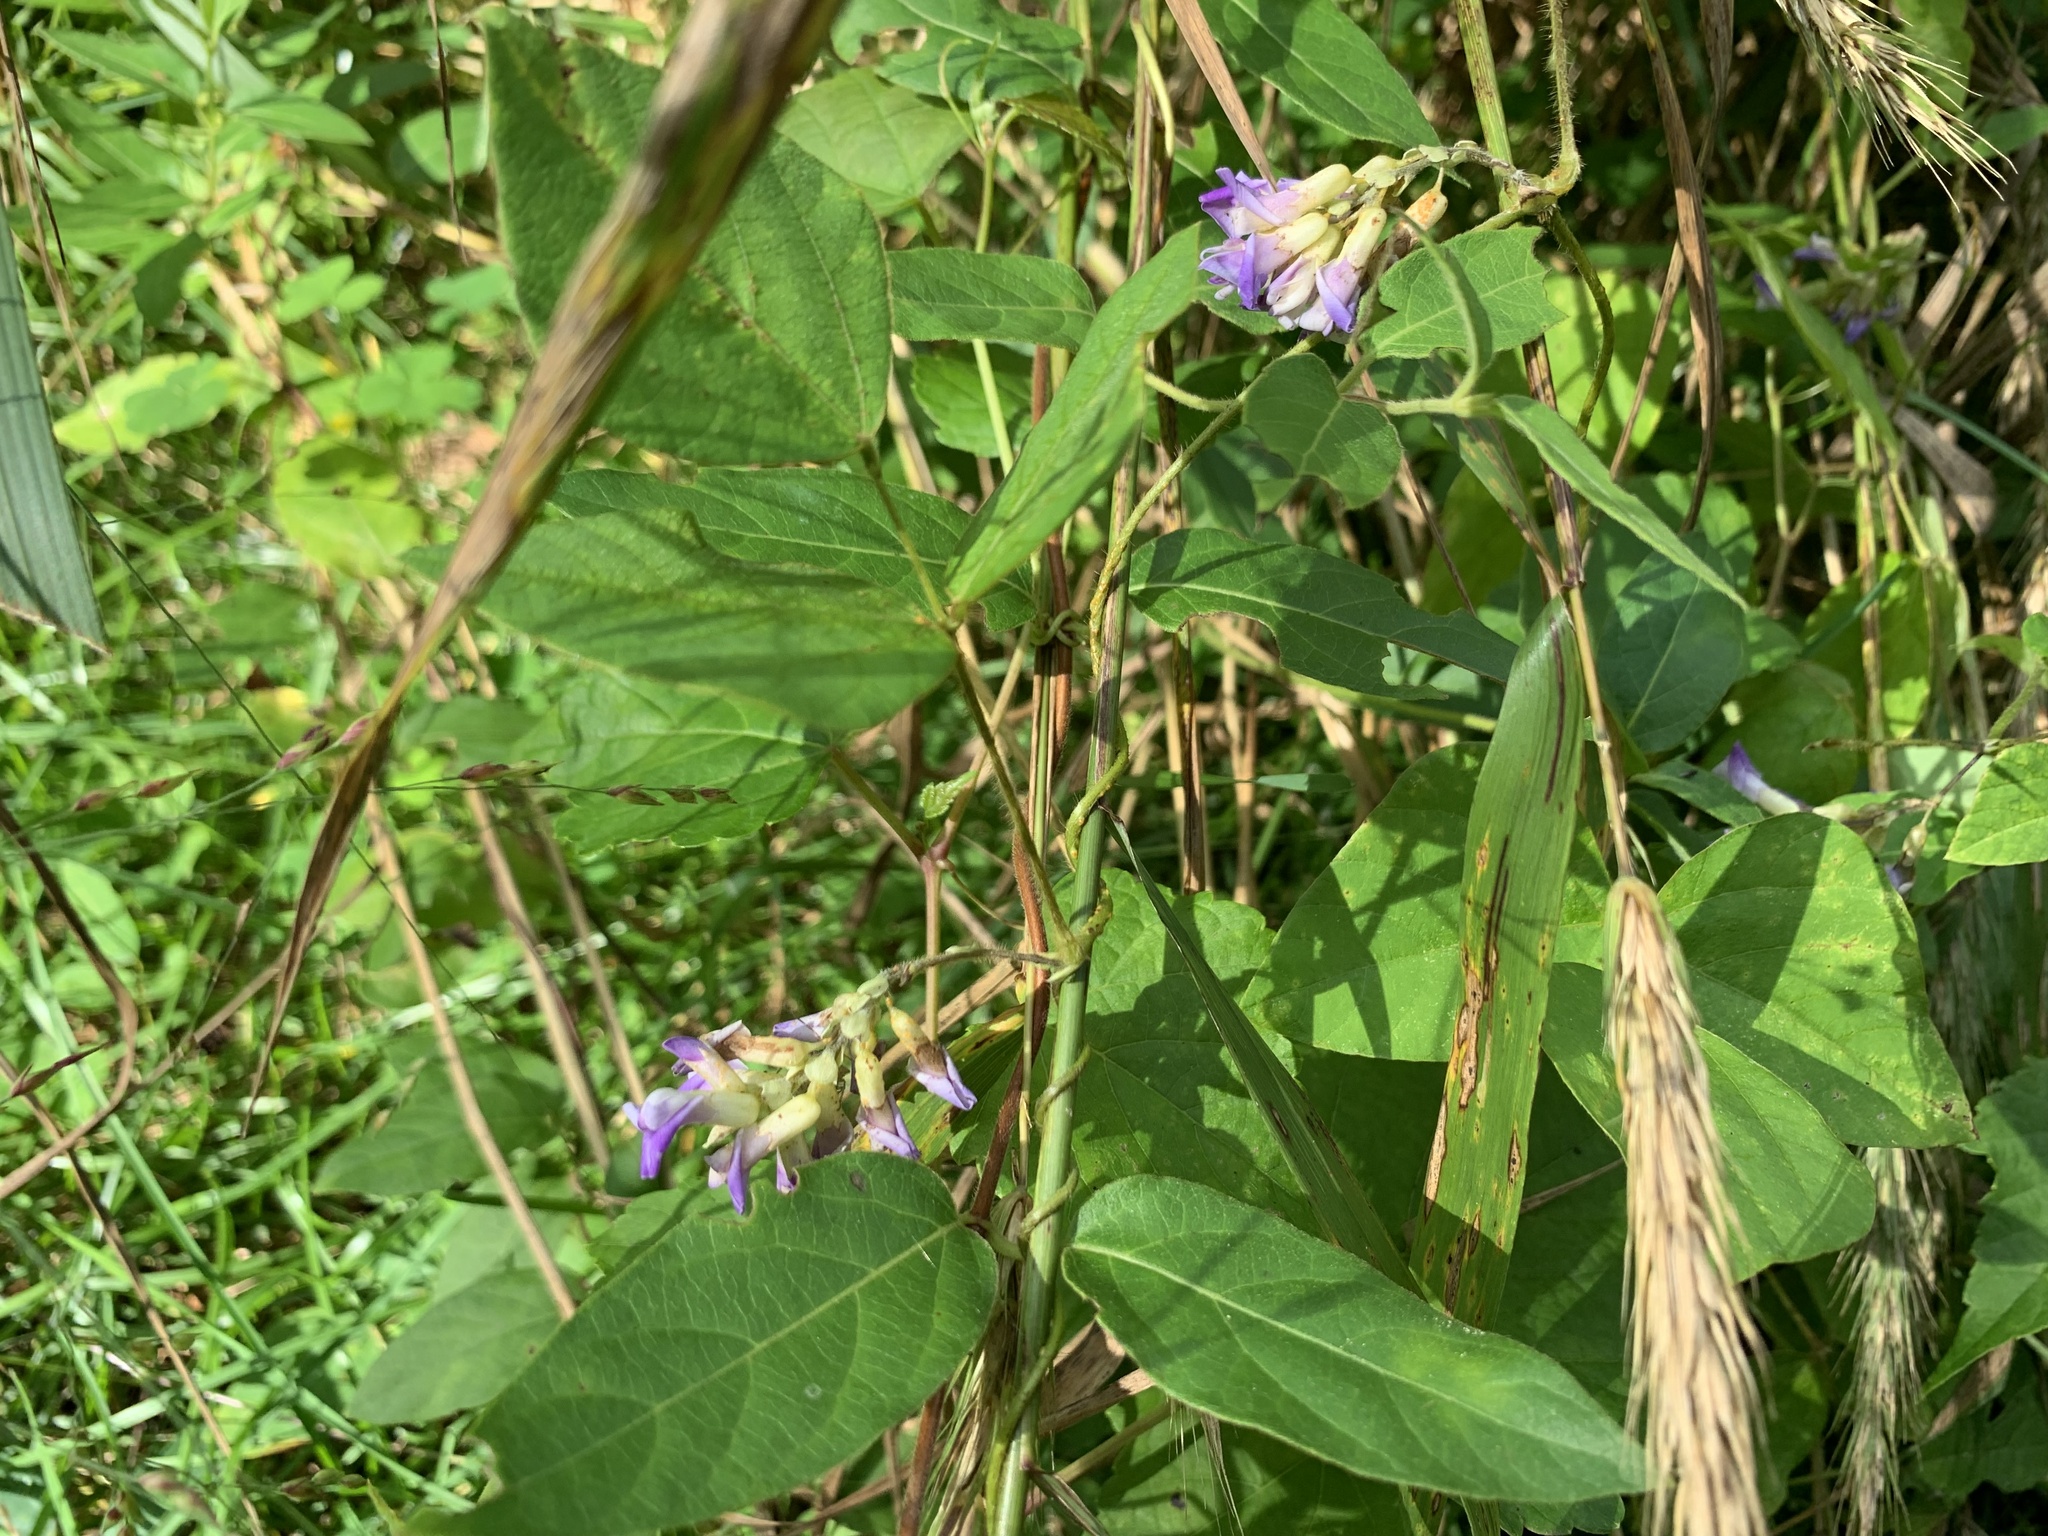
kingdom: Plantae
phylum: Tracheophyta
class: Magnoliopsida
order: Fabales
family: Fabaceae
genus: Amphicarpaea
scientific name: Amphicarpaea bracteata
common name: American hog peanut
